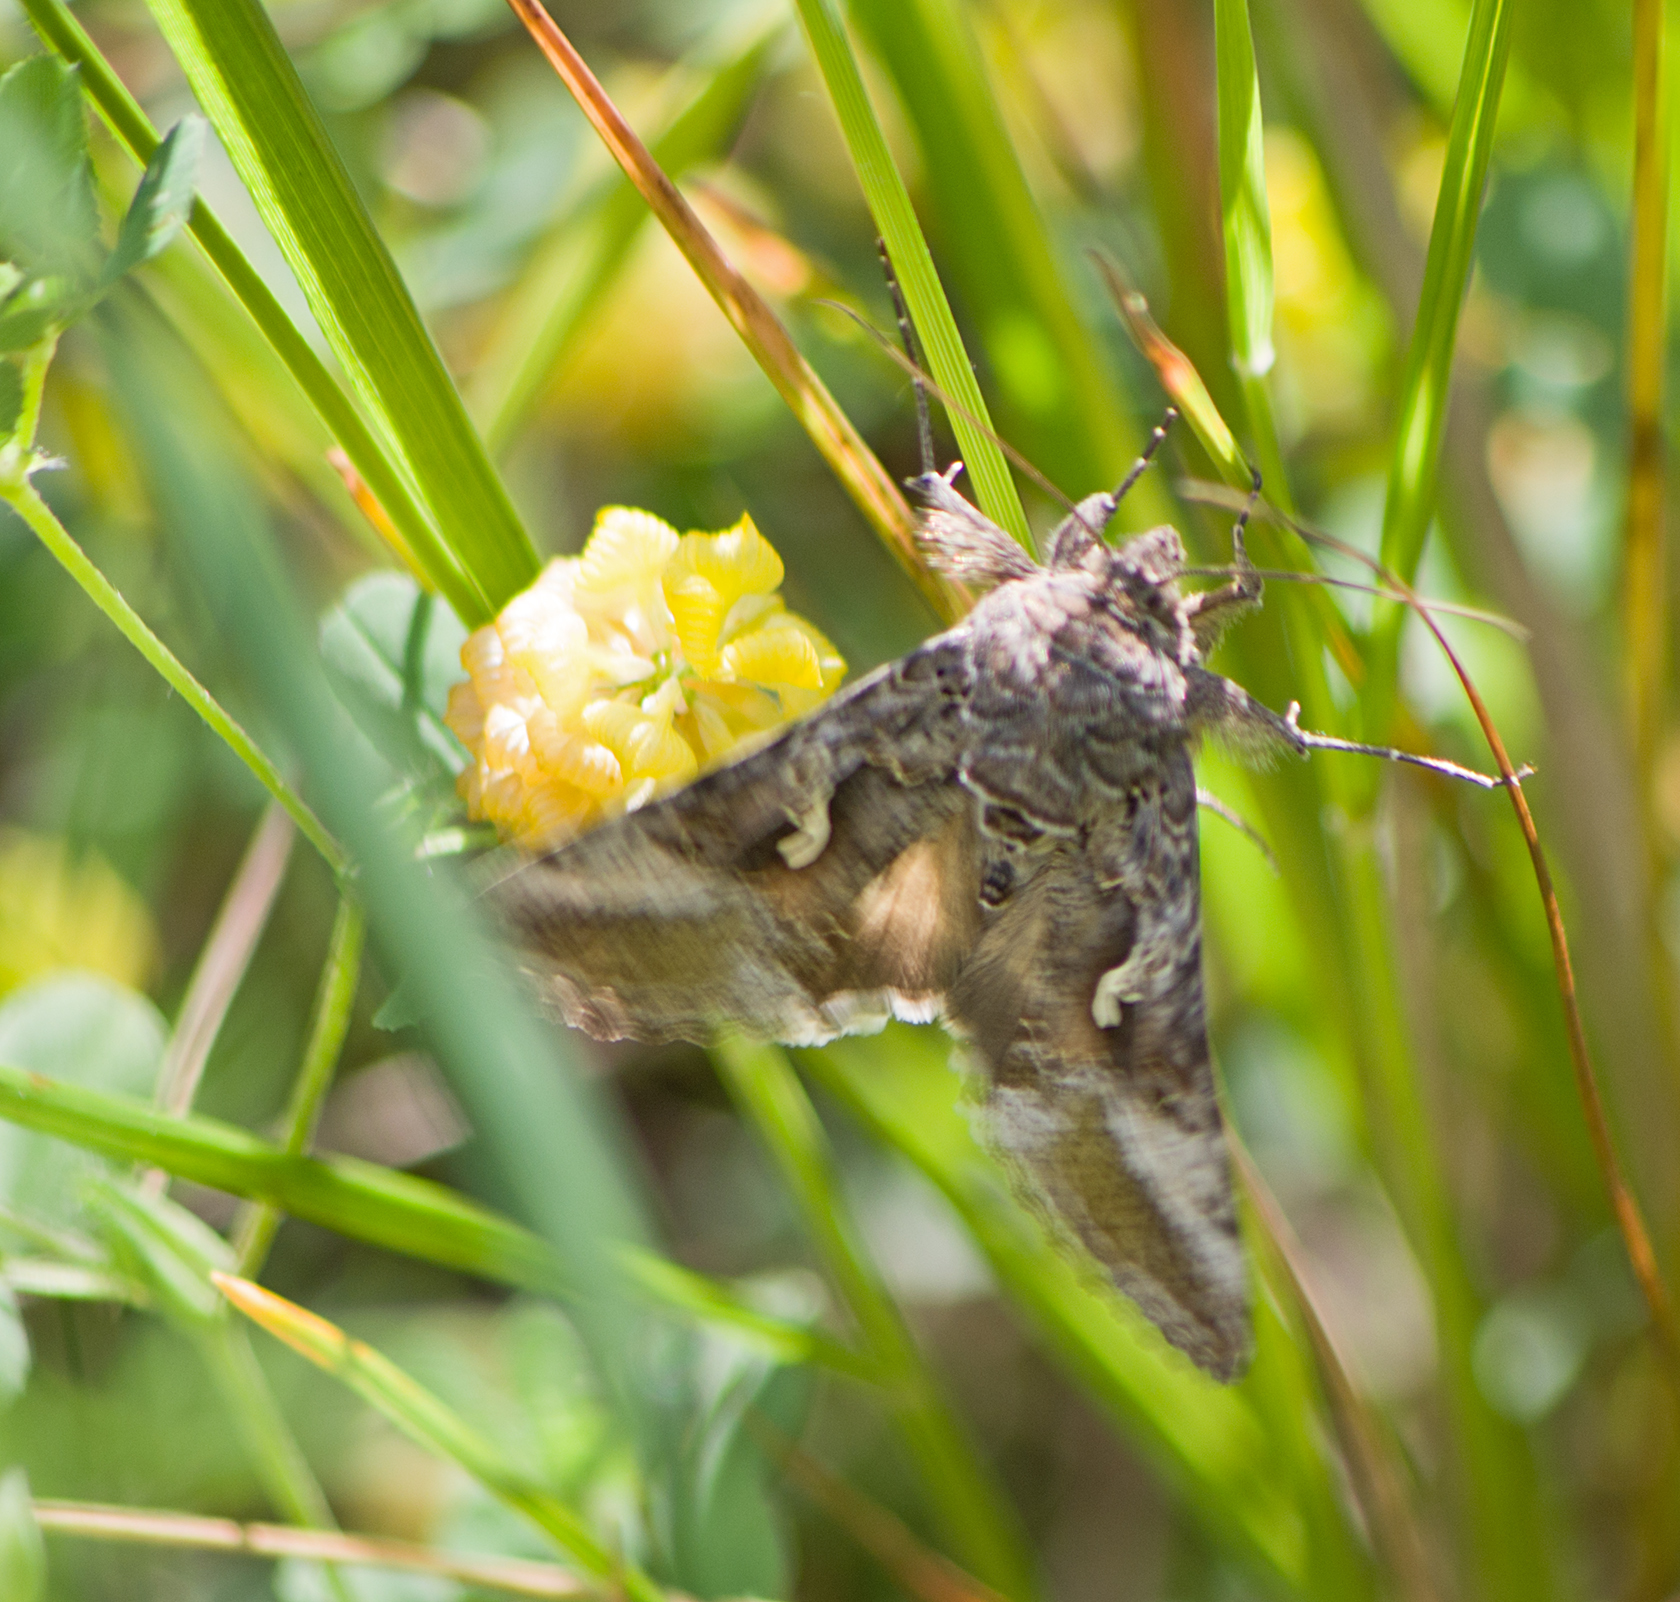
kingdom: Animalia
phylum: Arthropoda
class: Insecta
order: Lepidoptera
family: Noctuidae
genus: Autographa
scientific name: Autographa gamma
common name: Silver y
